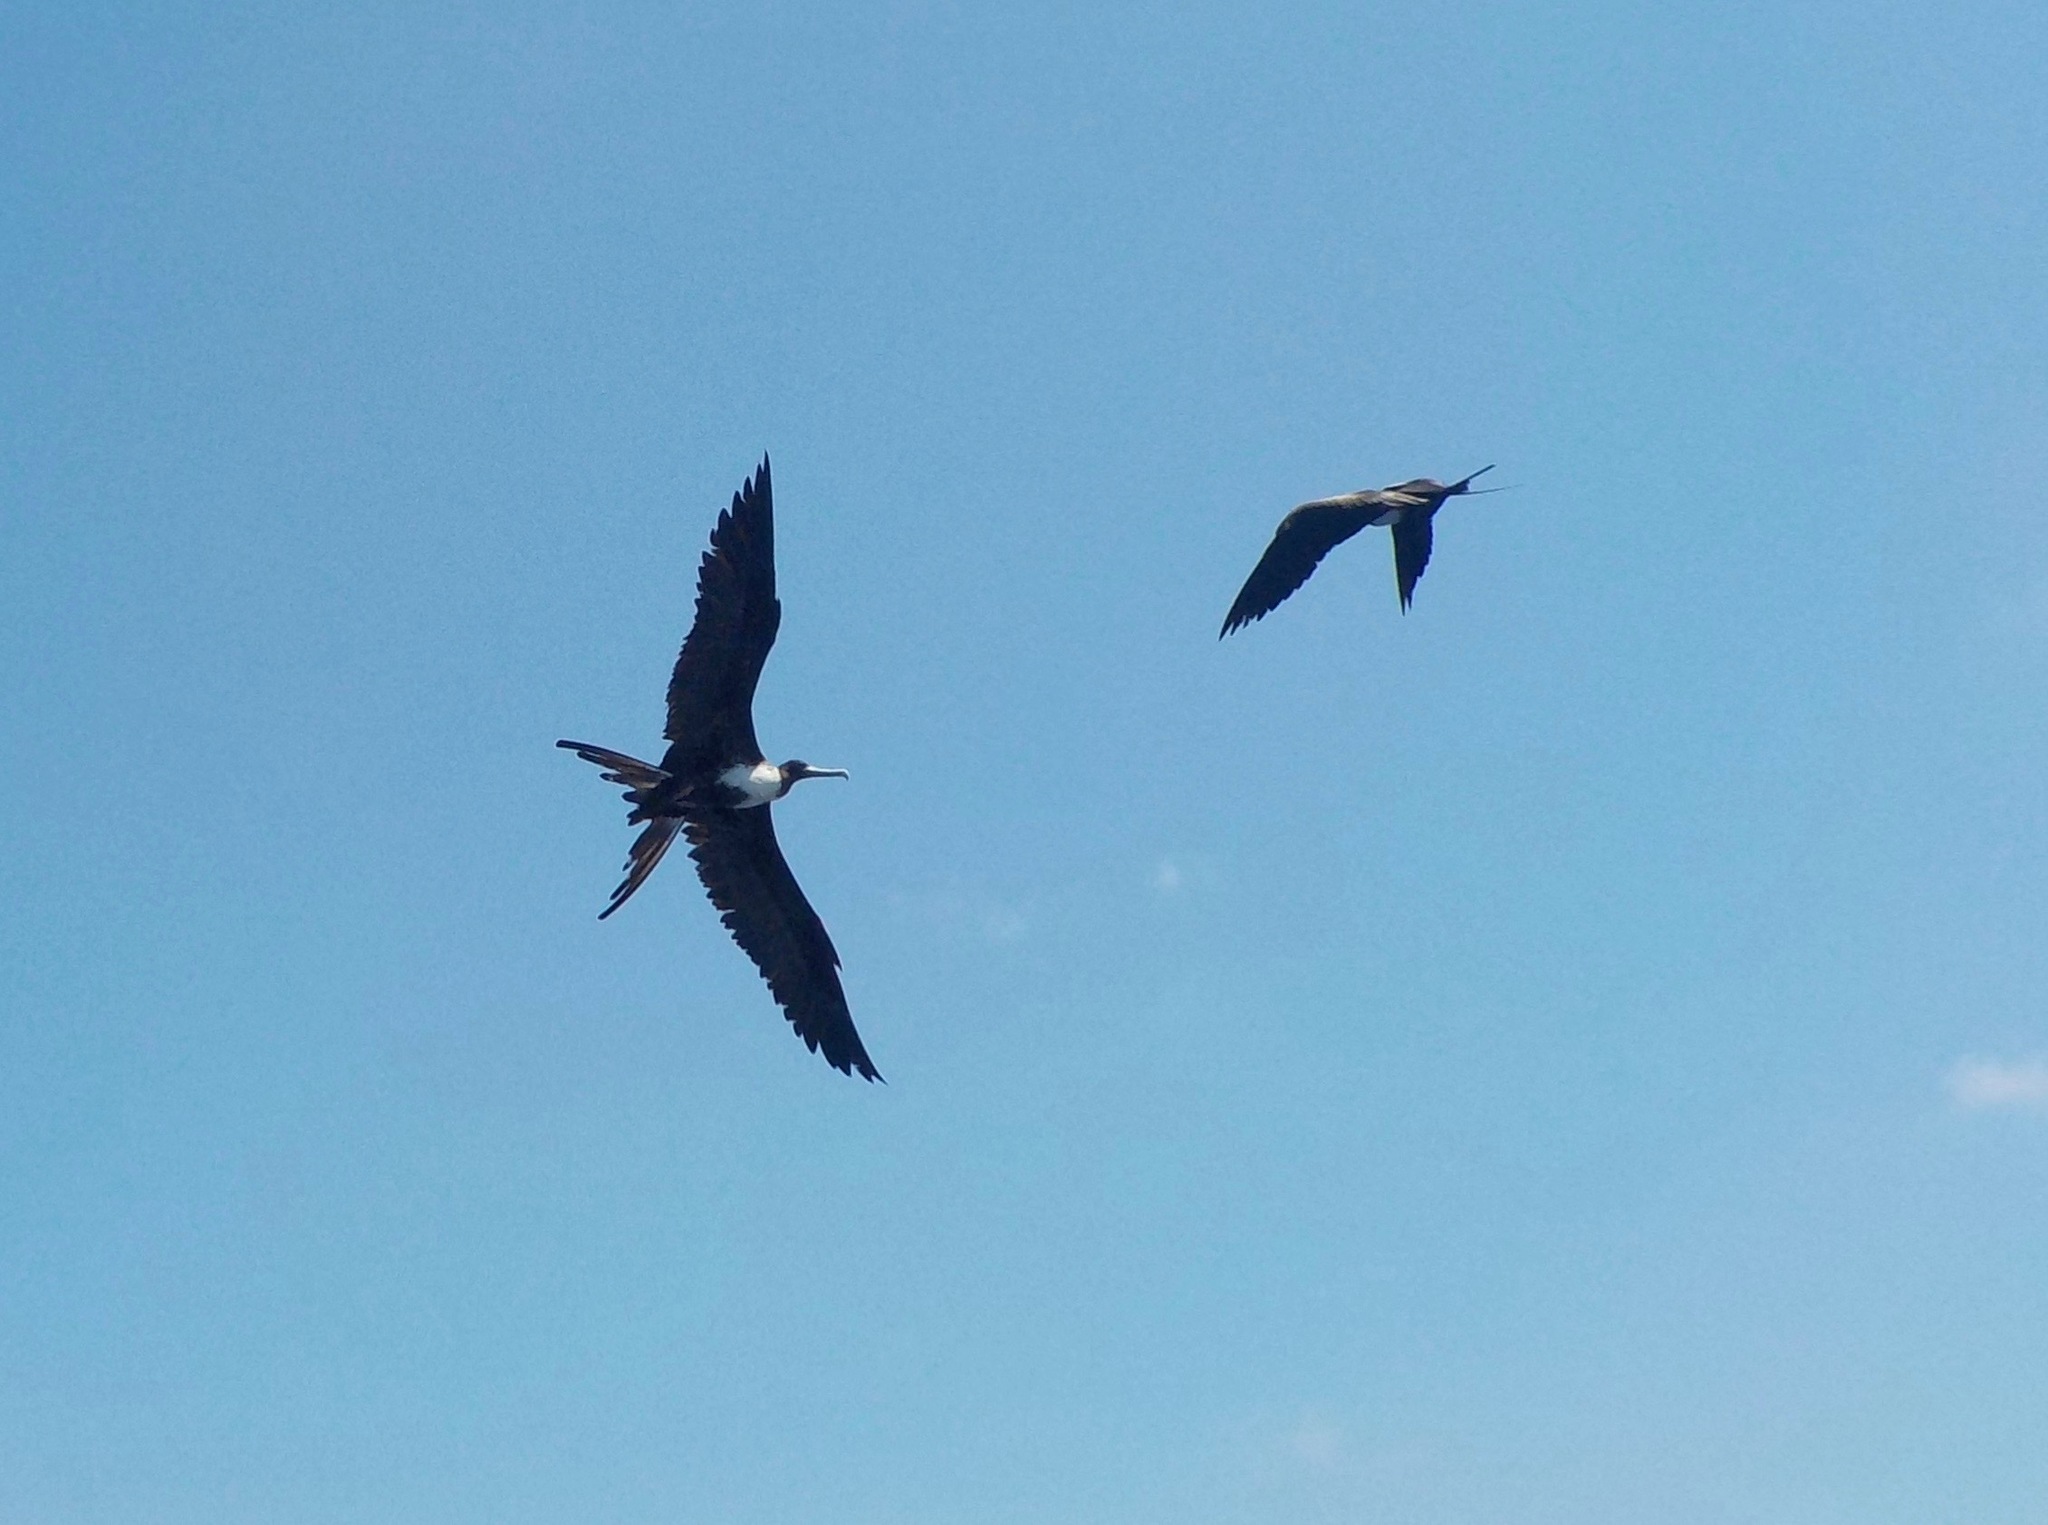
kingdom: Animalia
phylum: Chordata
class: Aves
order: Suliformes
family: Fregatidae
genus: Fregata
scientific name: Fregata magnificens
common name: Magnificent frigatebird
